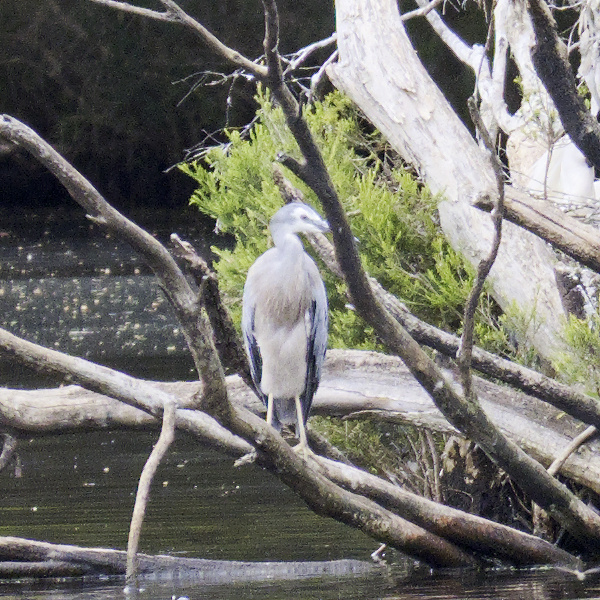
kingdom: Animalia
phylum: Chordata
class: Aves
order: Pelecaniformes
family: Ardeidae
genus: Egretta
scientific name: Egretta novaehollandiae
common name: White-faced heron
